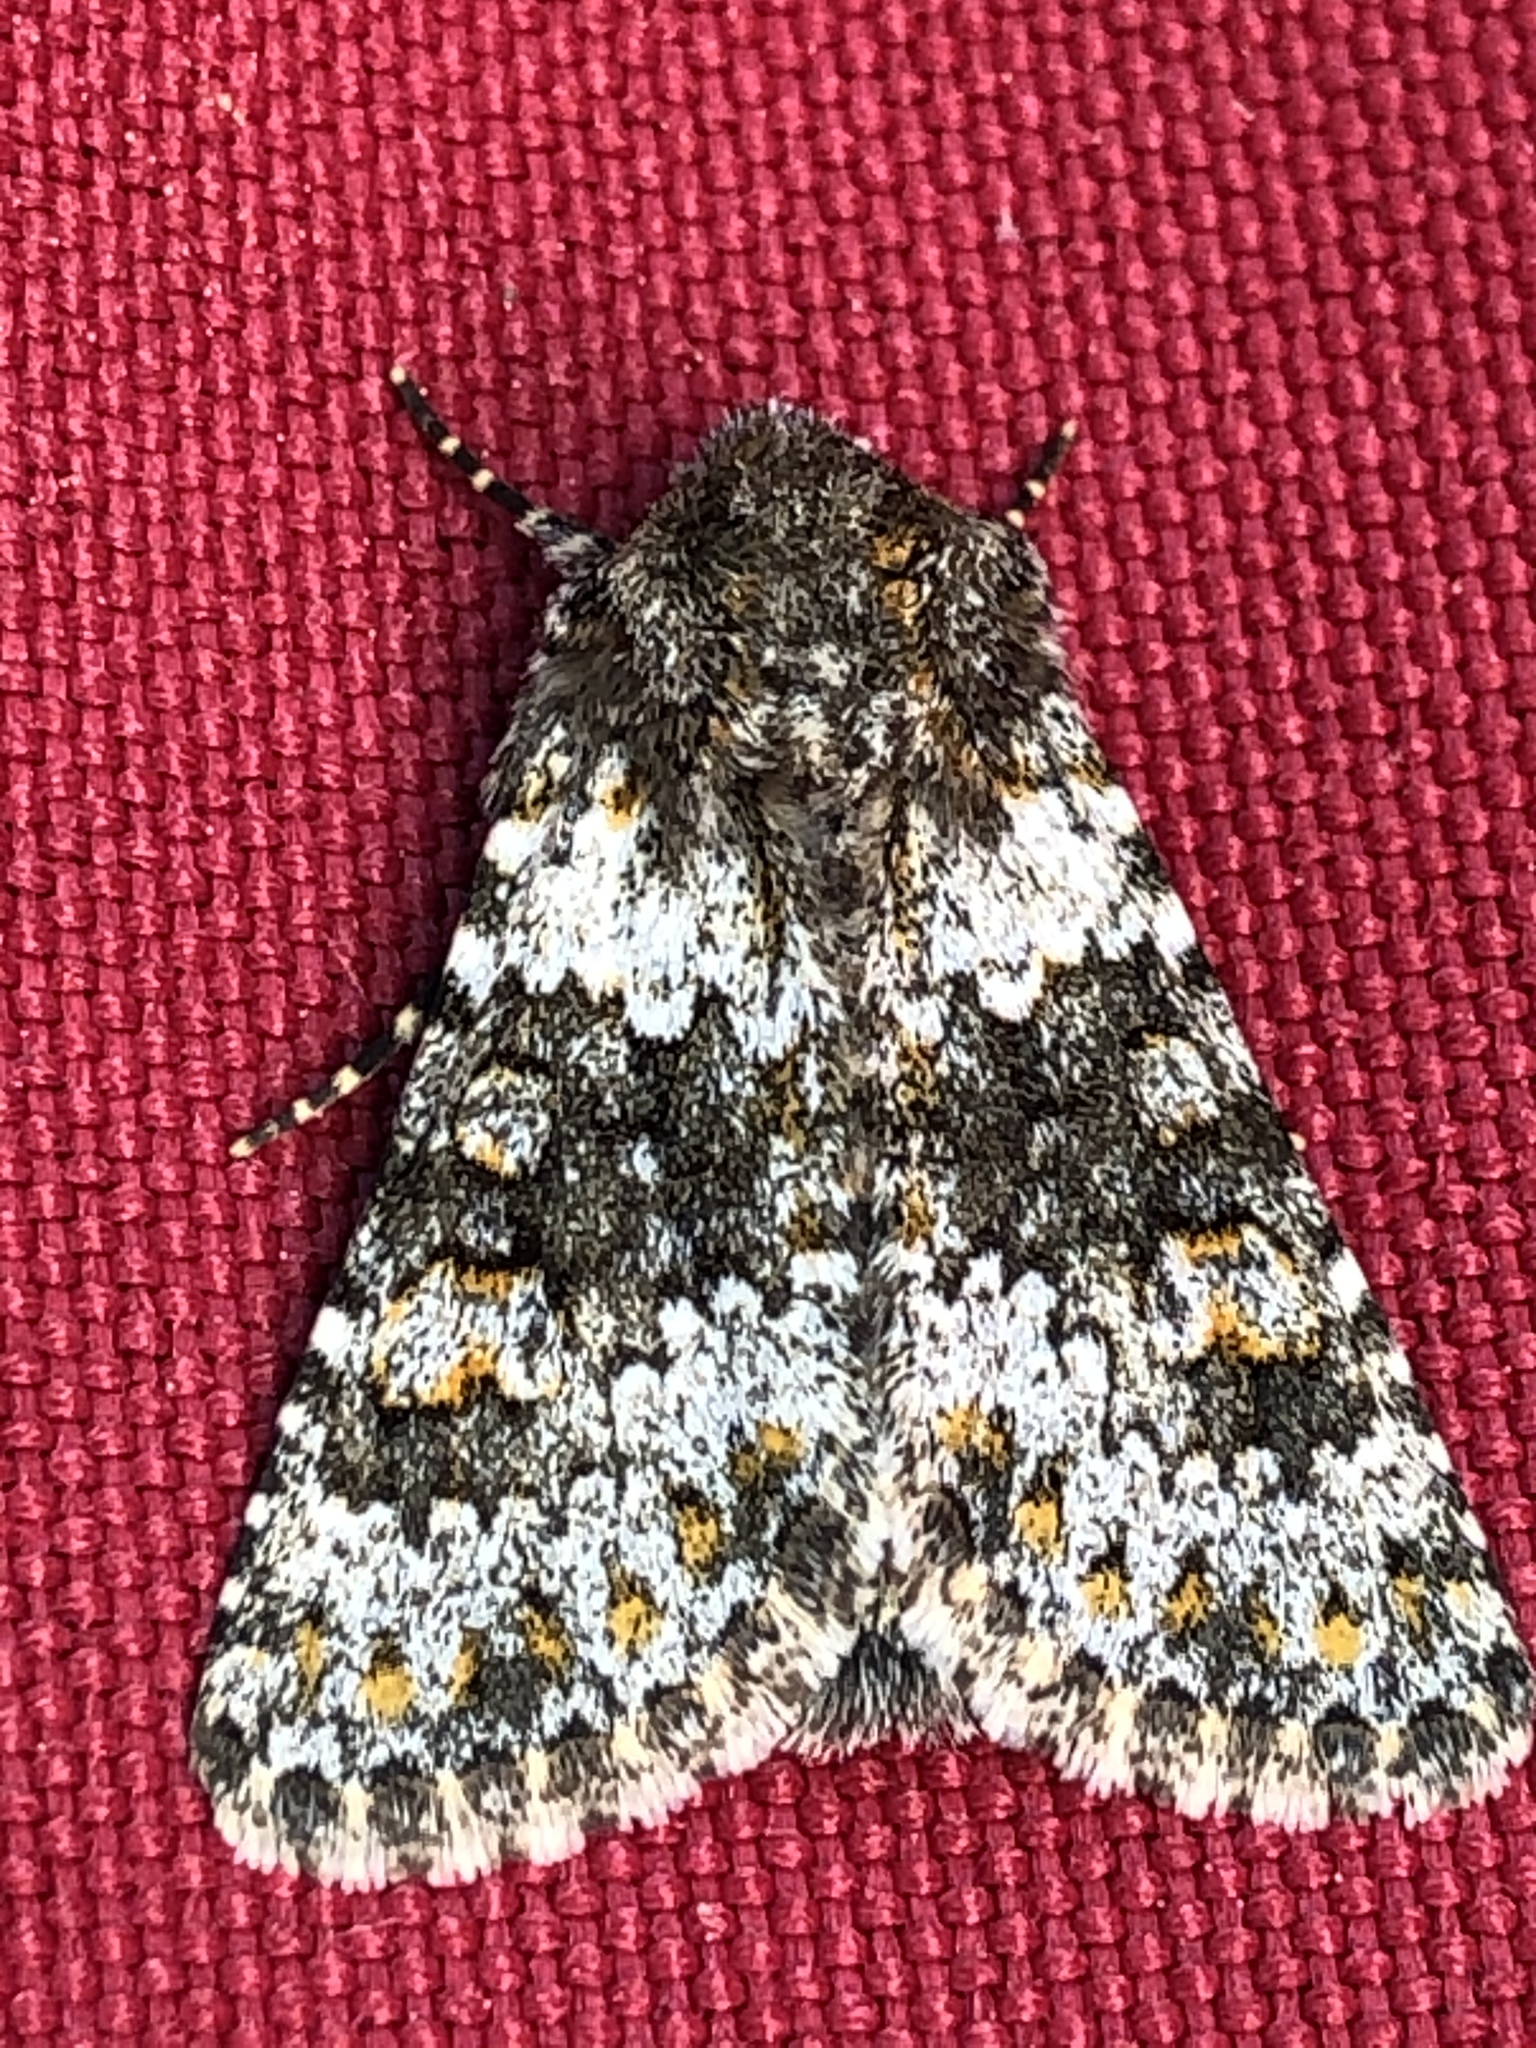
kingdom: Animalia
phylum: Arthropoda
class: Insecta
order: Lepidoptera
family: Noctuidae
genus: Hecatera
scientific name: Hecatera dysodea
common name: Small ranunculus
